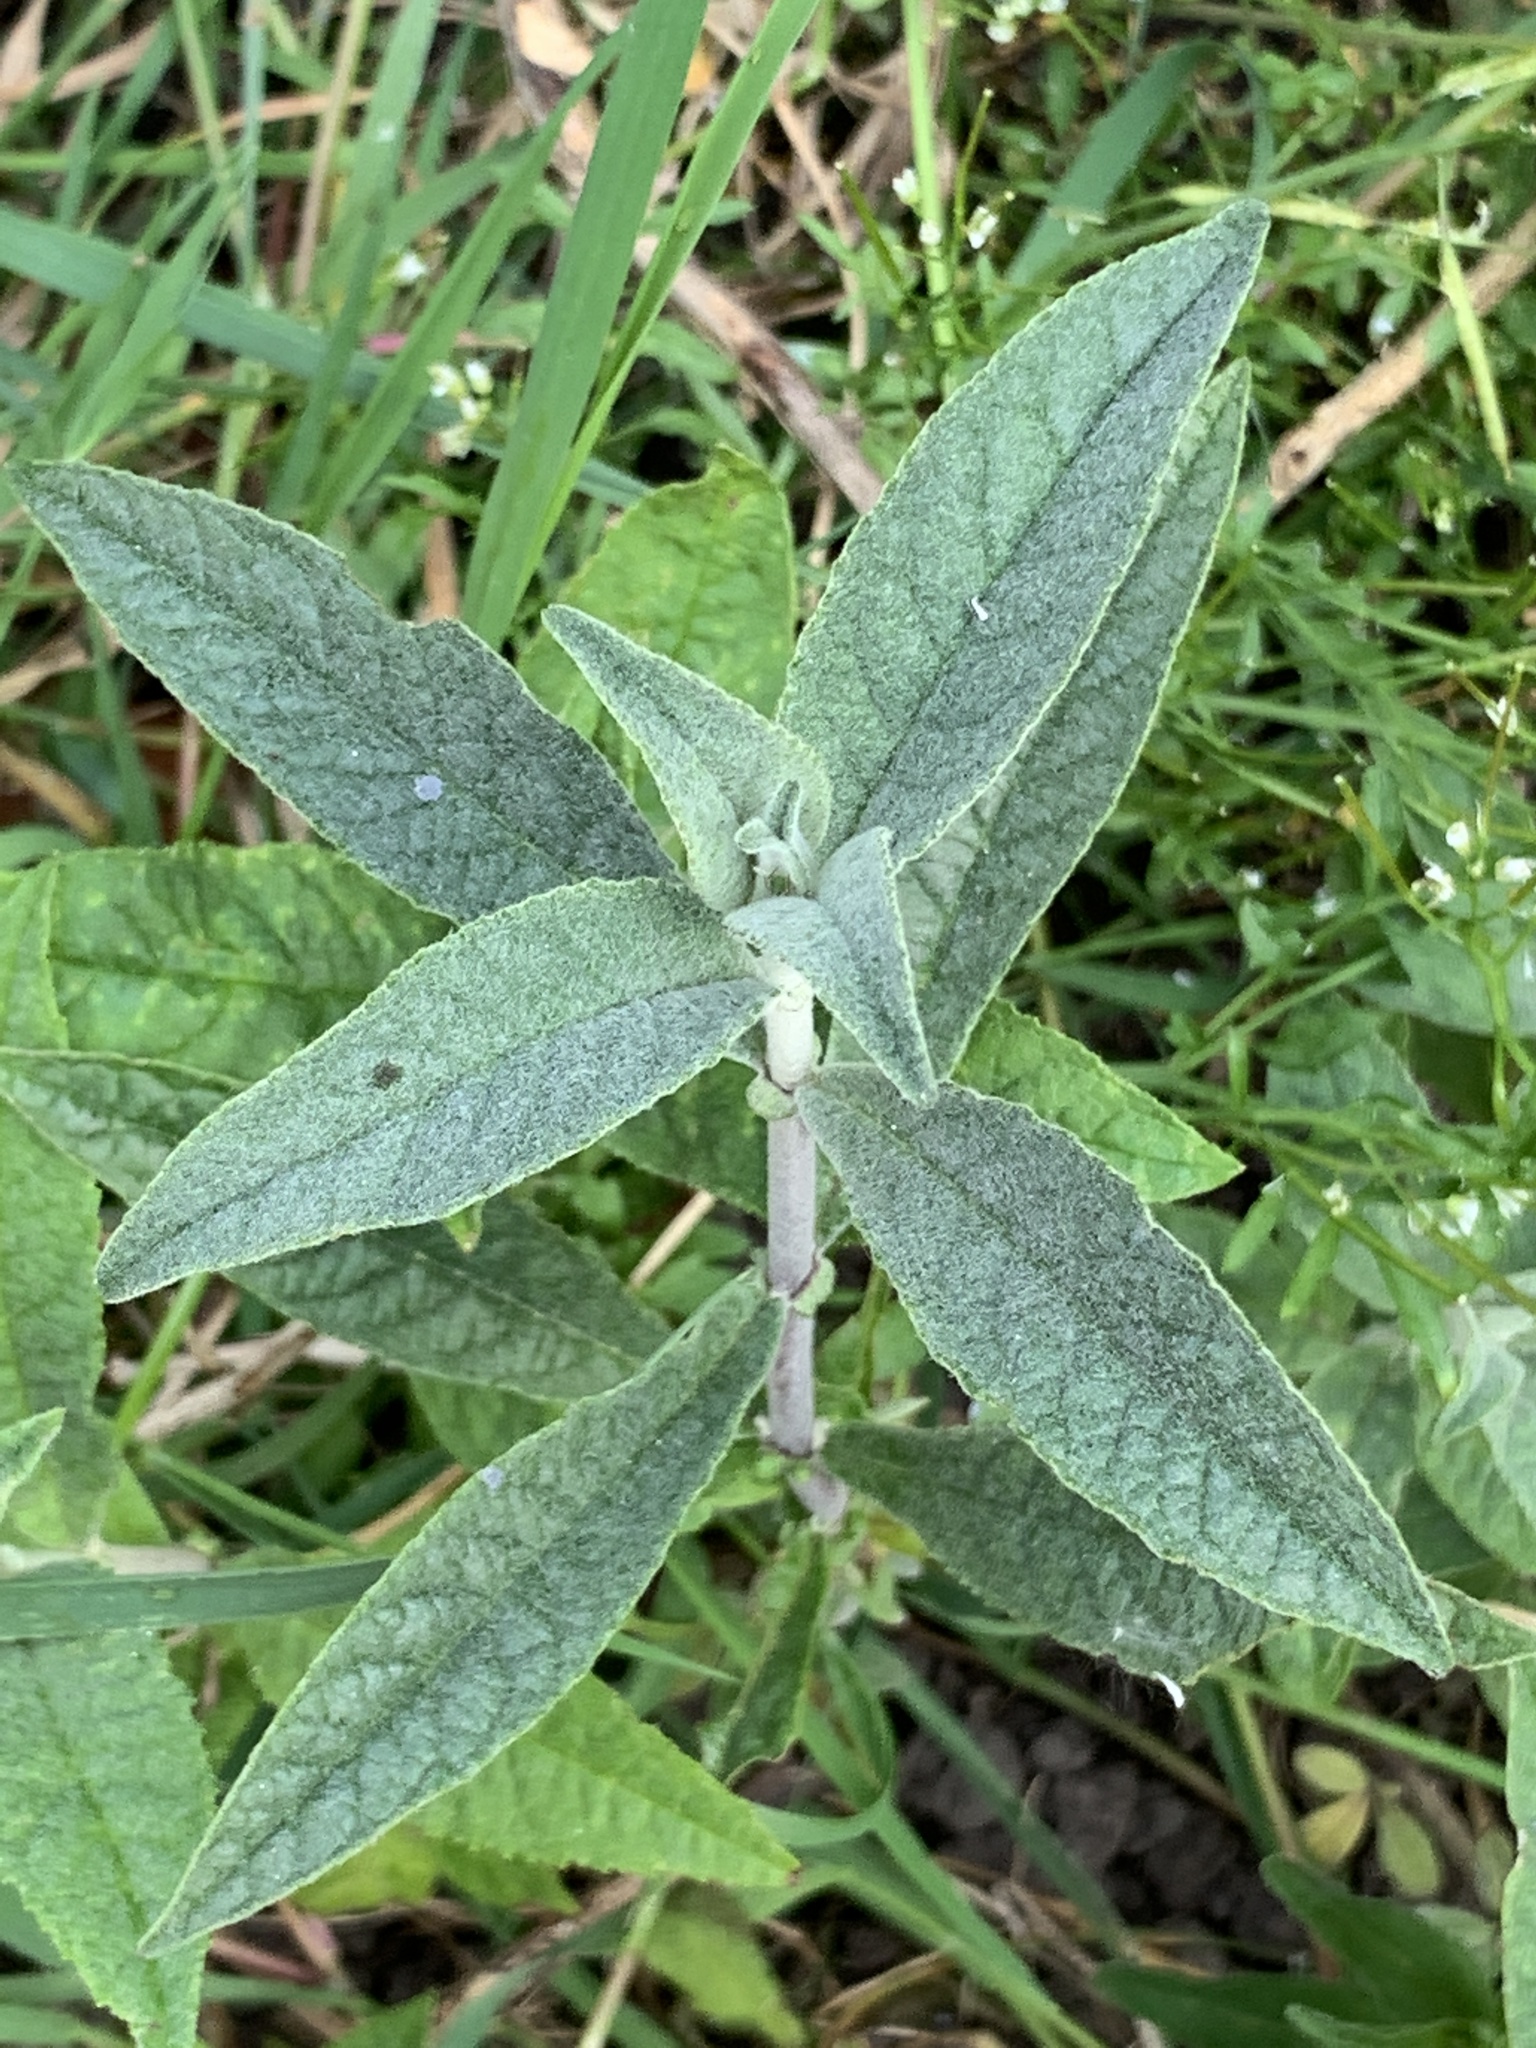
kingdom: Plantae
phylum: Tracheophyta
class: Magnoliopsida
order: Lamiales
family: Scrophulariaceae
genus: Buddleja
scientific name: Buddleja davidii
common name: Butterfly-bush
